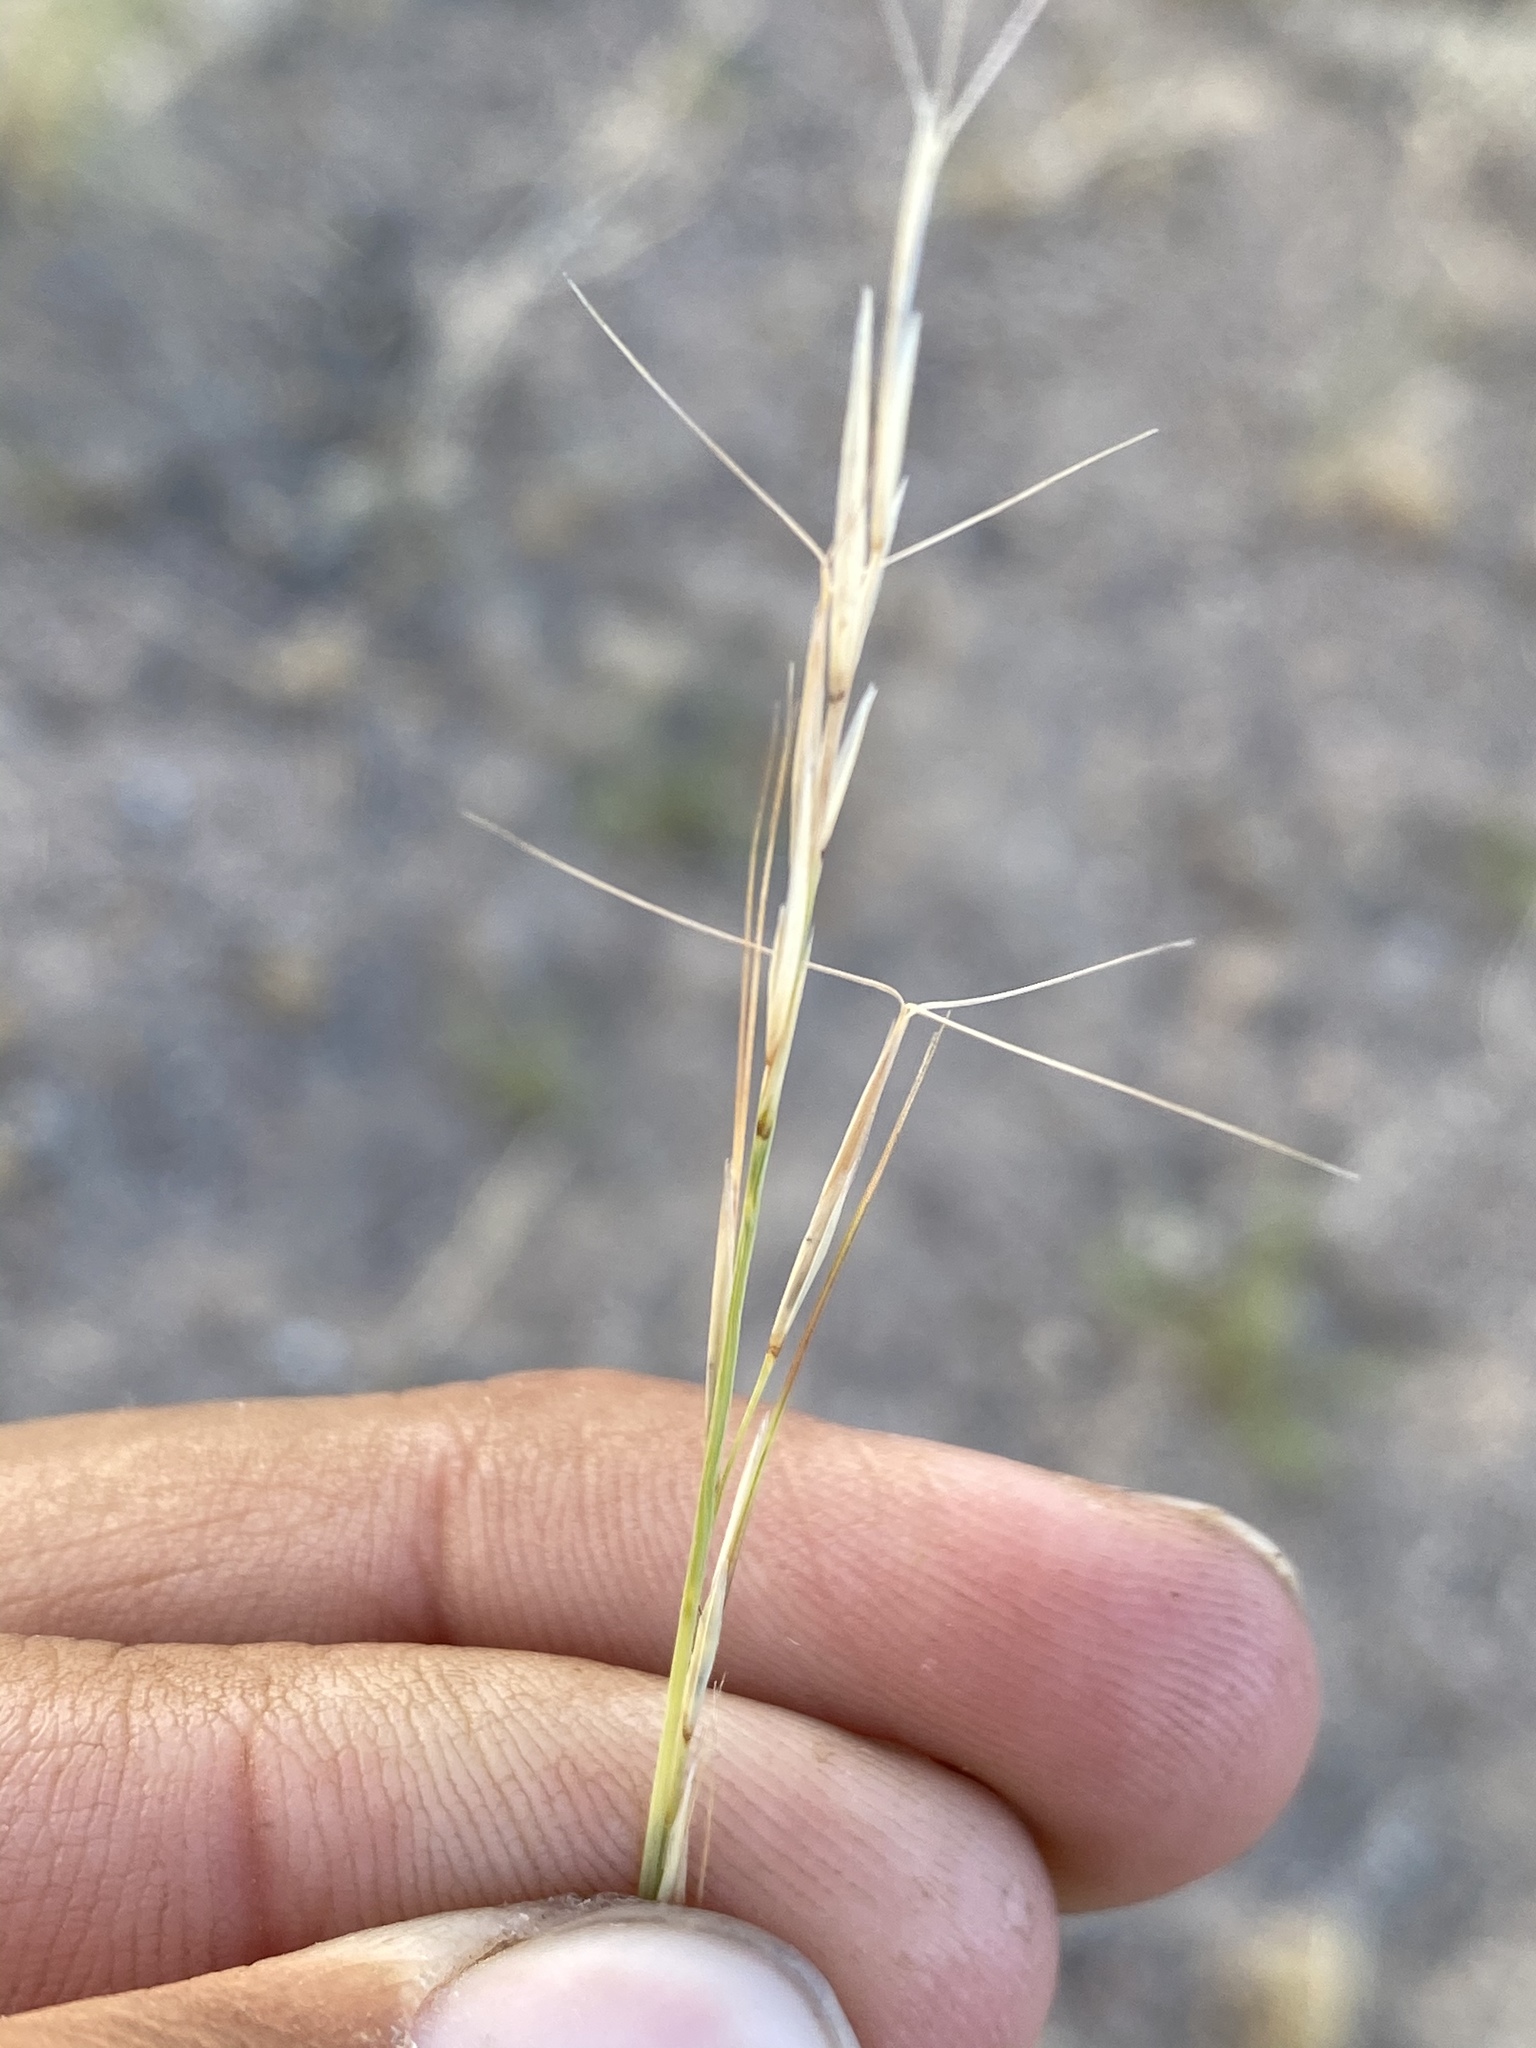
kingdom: Plantae
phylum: Tracheophyta
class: Liliopsida
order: Poales
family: Poaceae
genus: Aristida
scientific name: Aristida purpurea
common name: Purple threeawn
